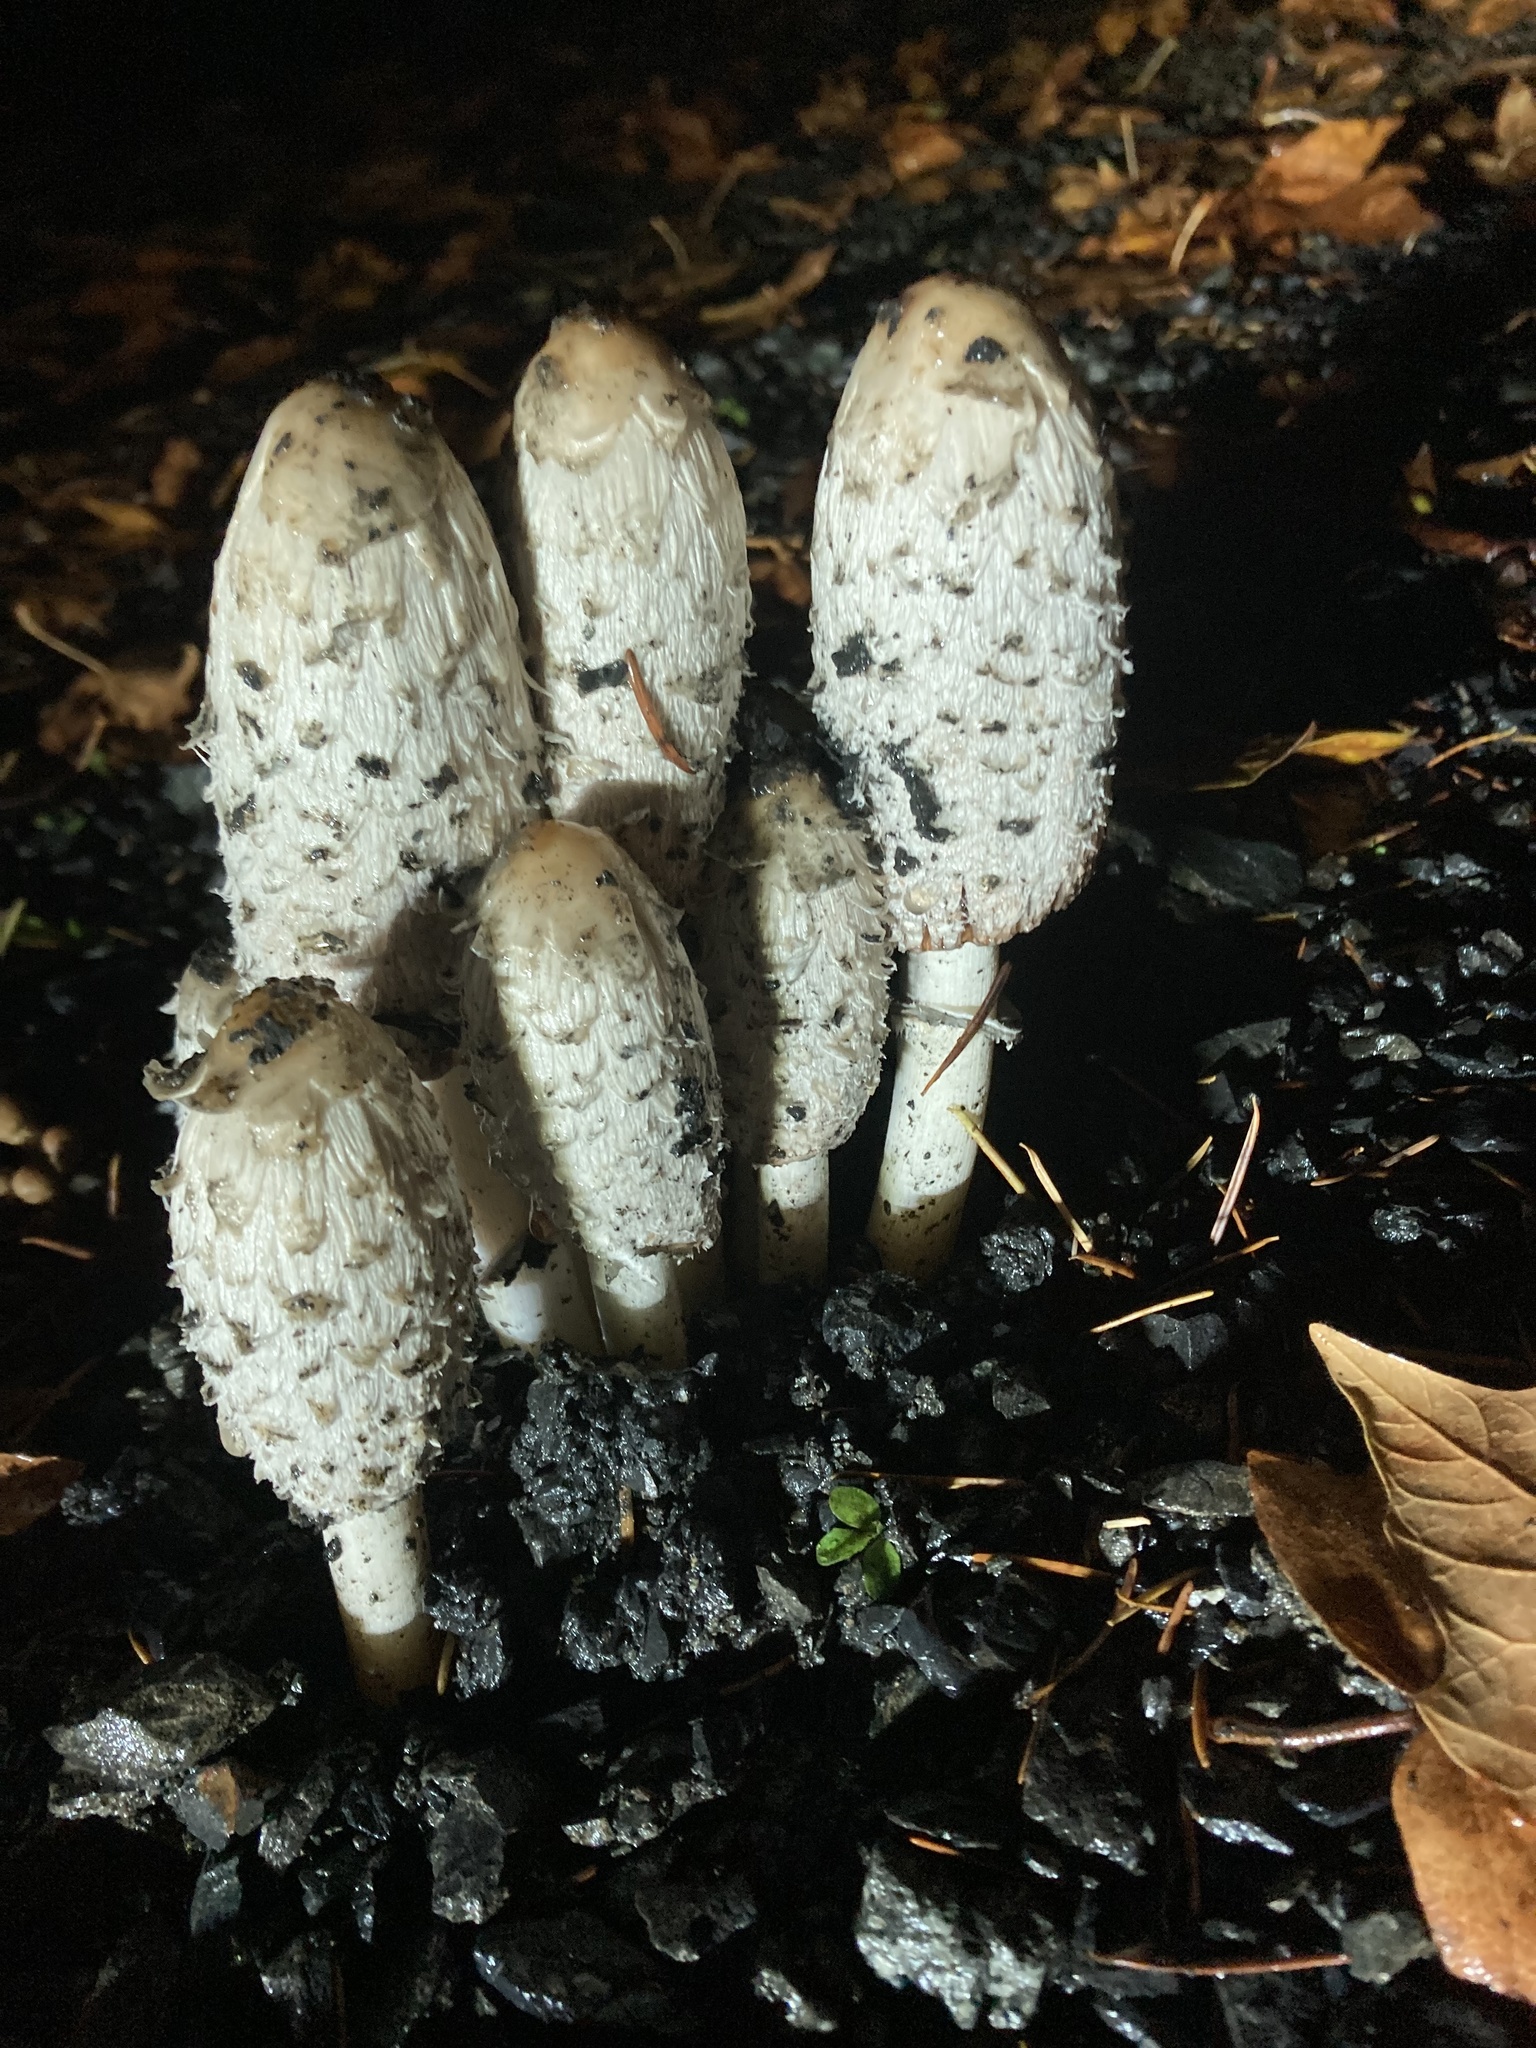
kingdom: Fungi
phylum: Basidiomycota
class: Agaricomycetes
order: Agaricales
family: Agaricaceae
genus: Coprinus
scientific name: Coprinus comatus
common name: Lawyer's wig
